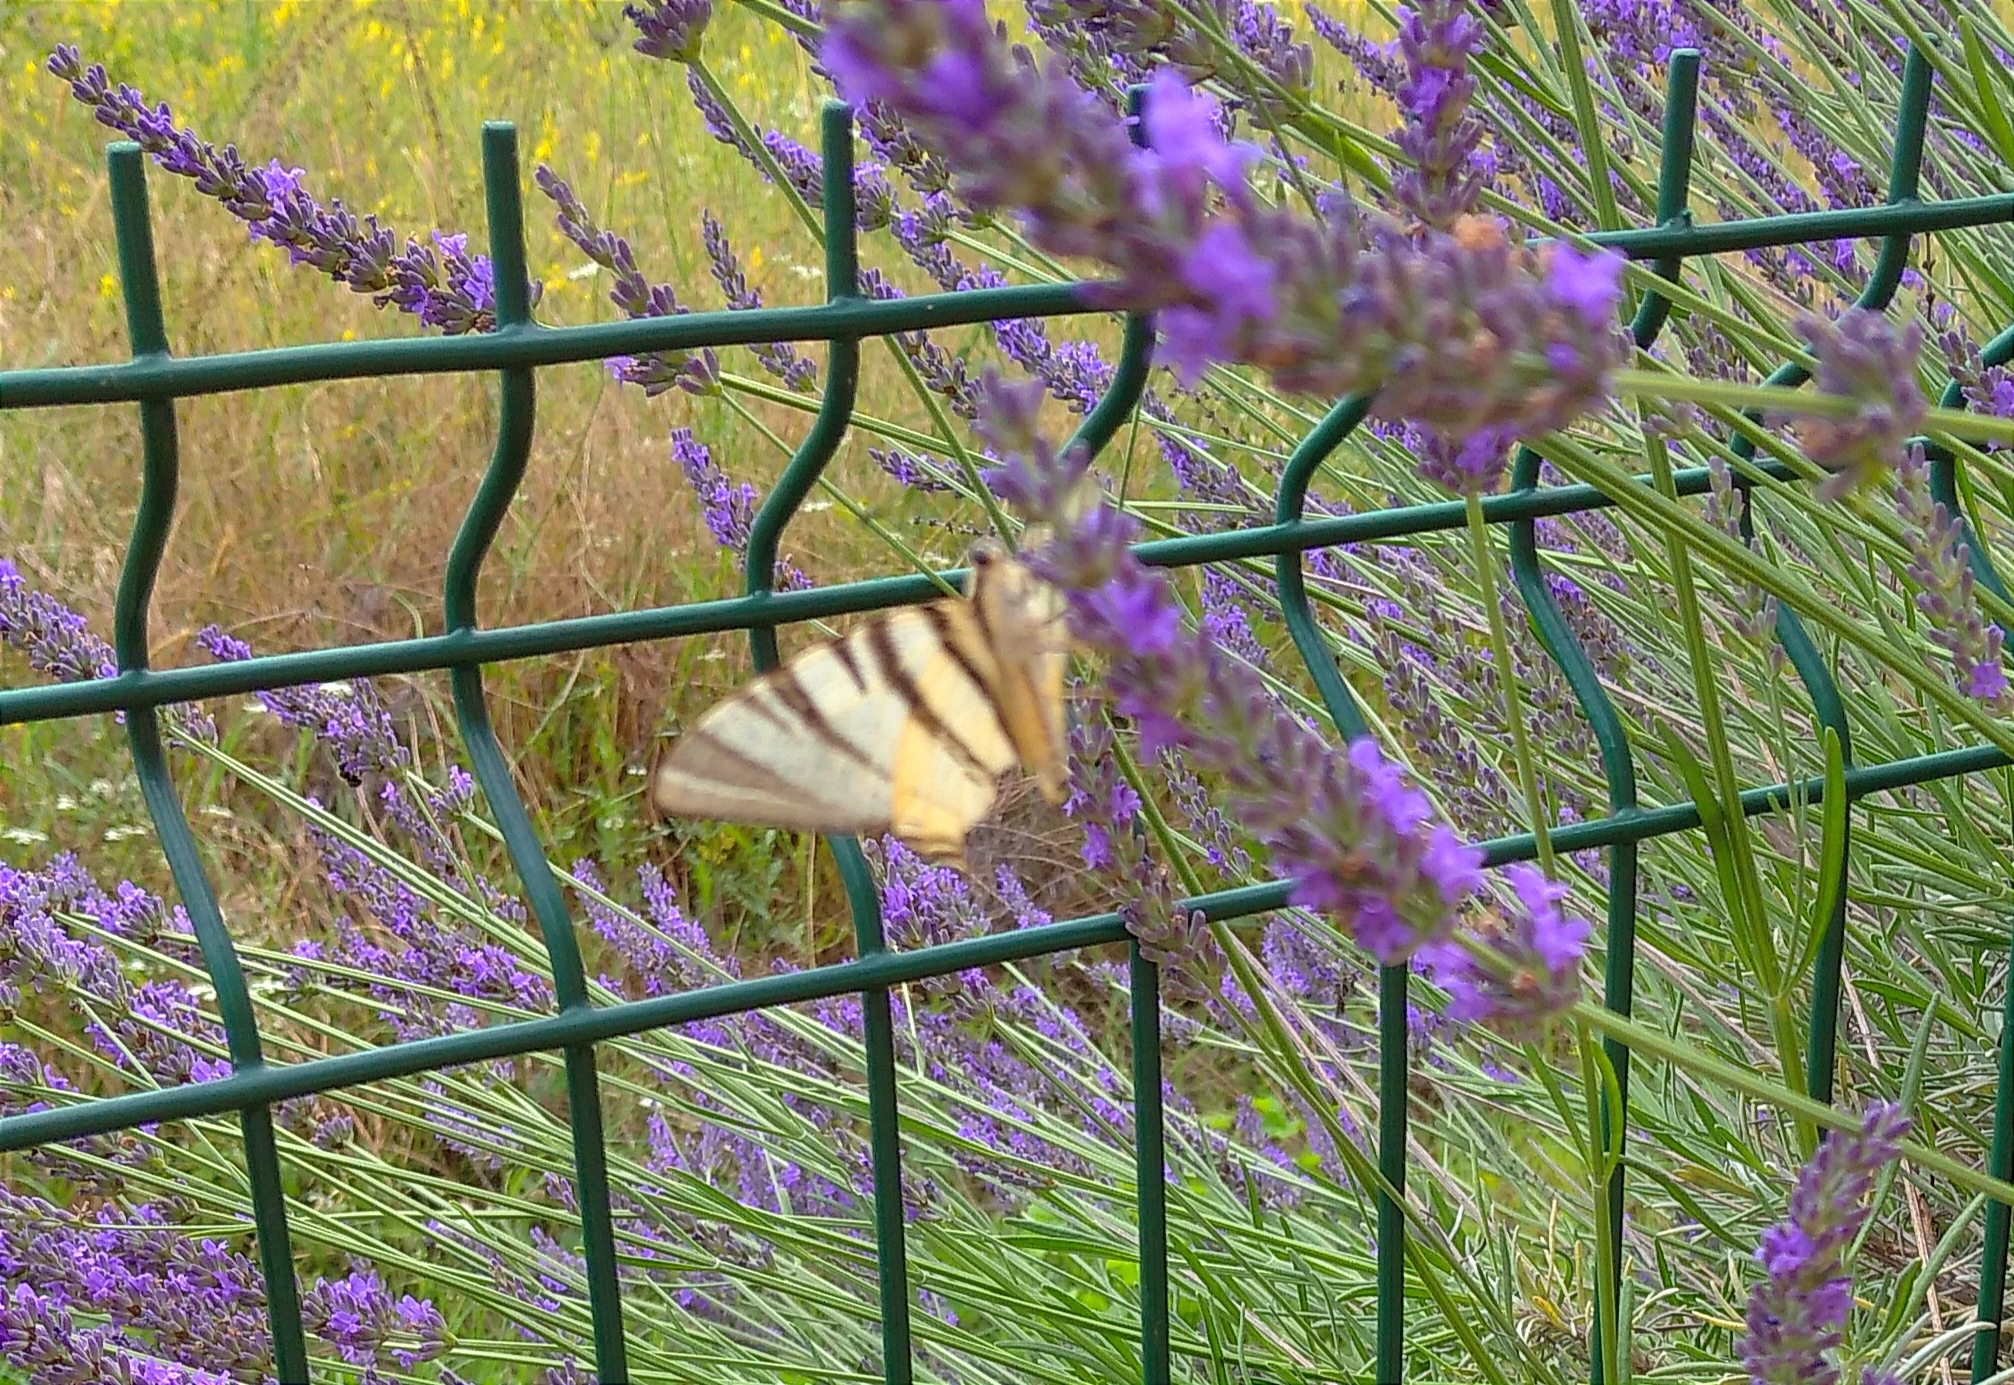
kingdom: Animalia
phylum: Arthropoda
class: Insecta
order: Lepidoptera
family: Papilionidae
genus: Iphiclides
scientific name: Iphiclides podalirius
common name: Scarce swallowtail
